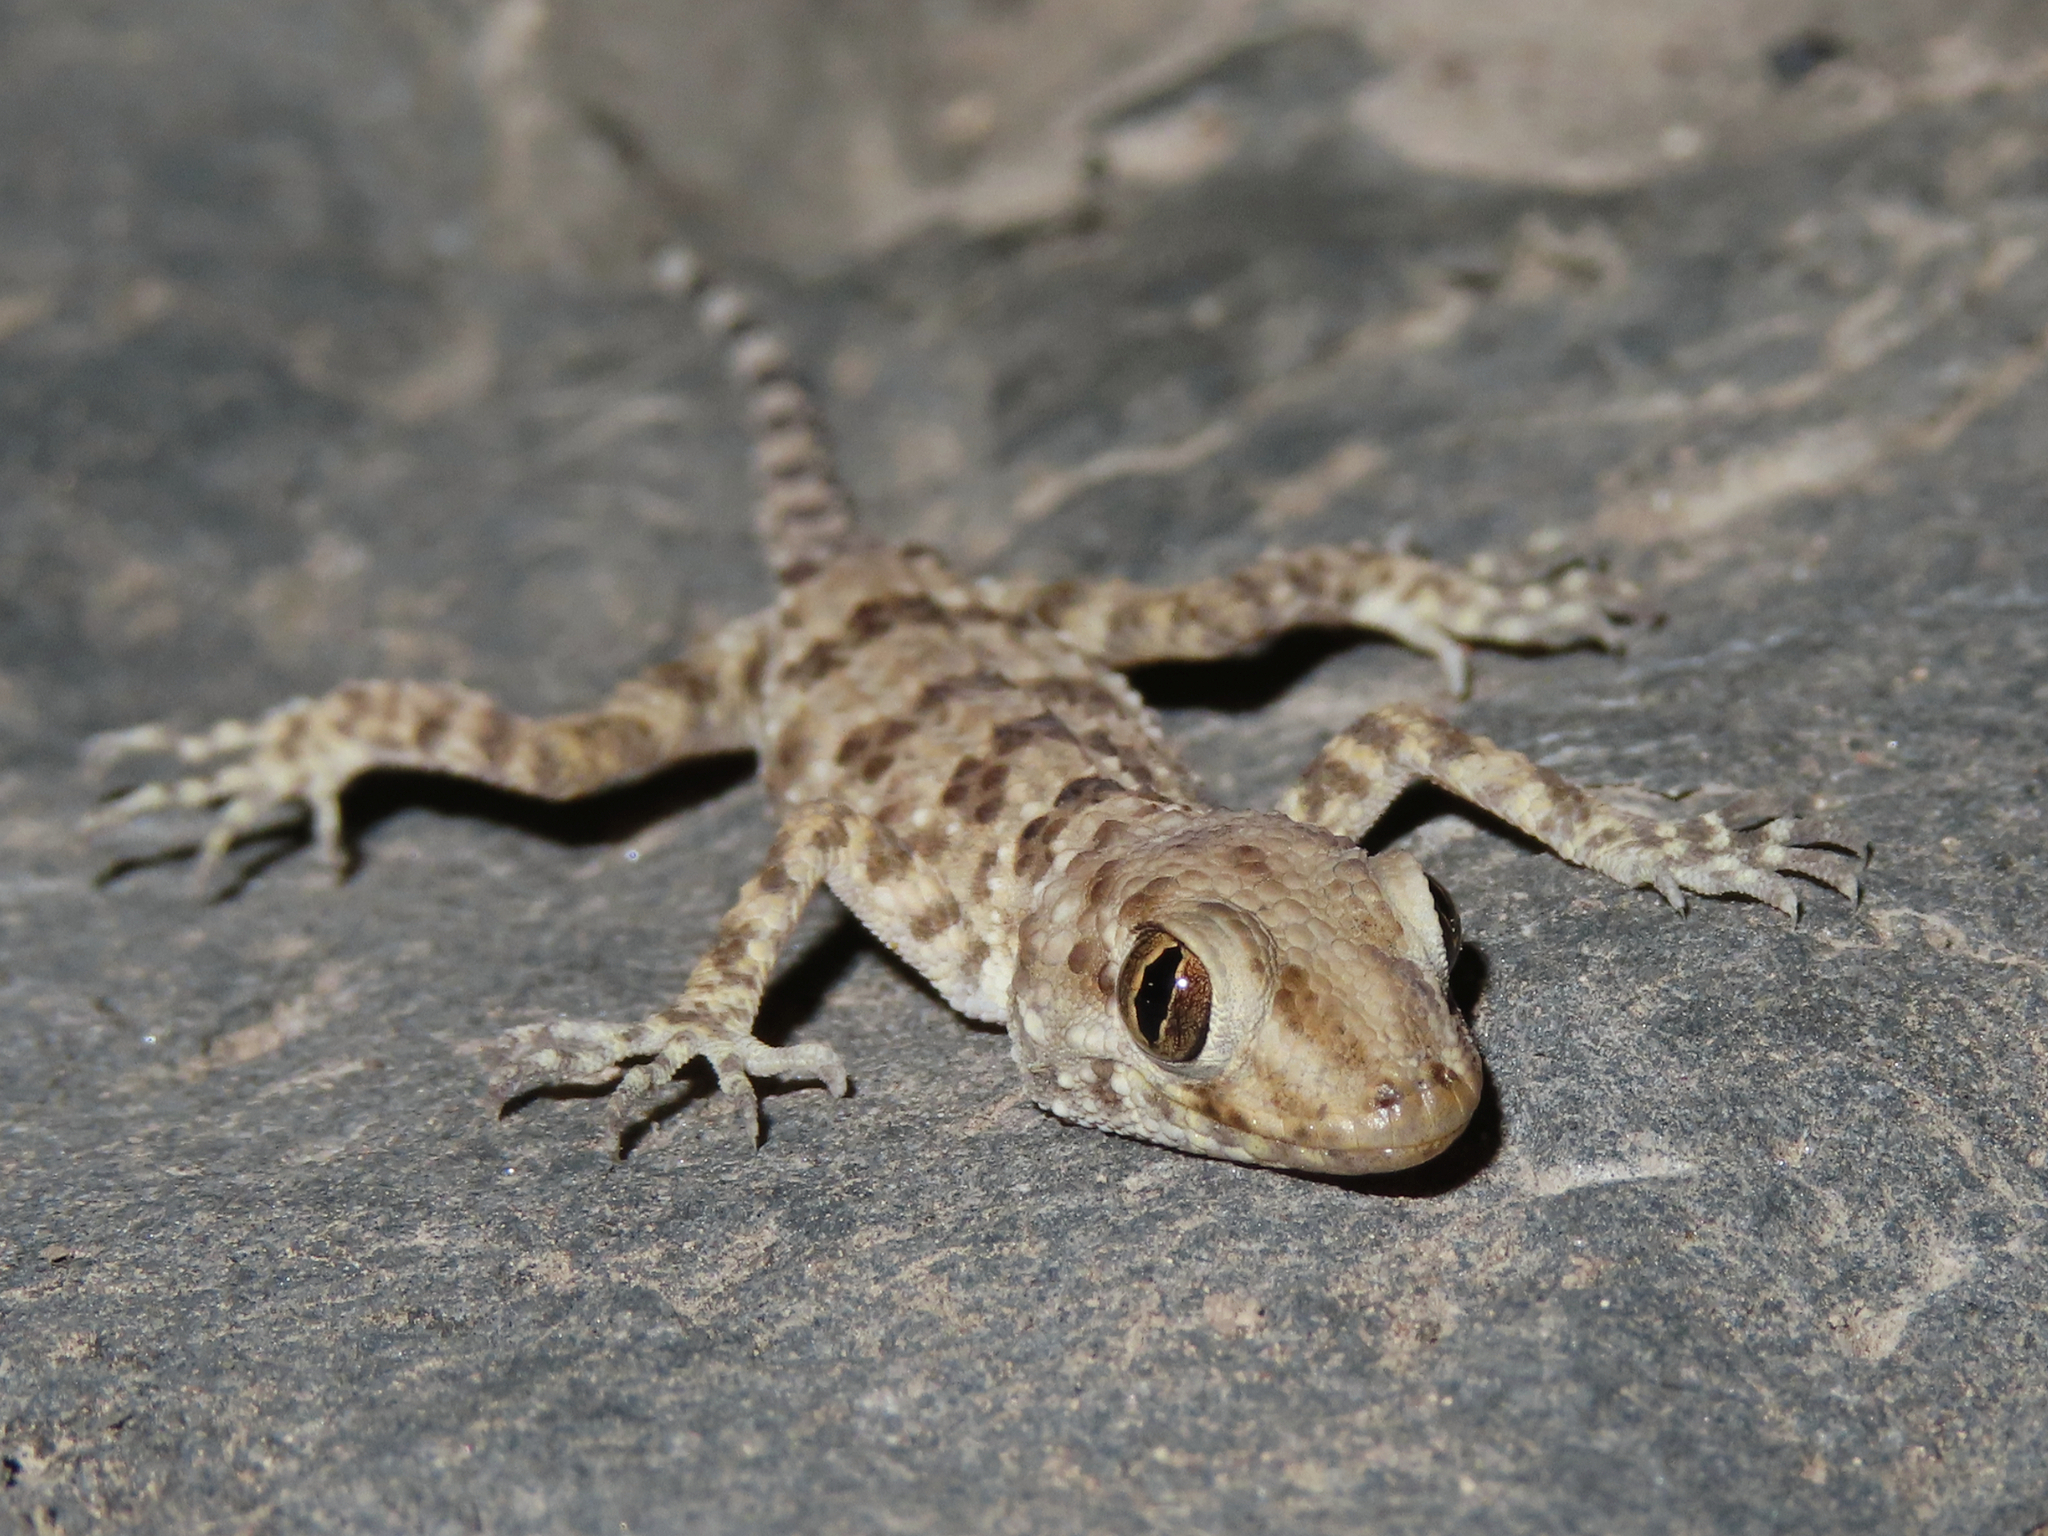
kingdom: Animalia
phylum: Chordata
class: Squamata
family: Gekkonidae
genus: Tenuidactylus
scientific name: Tenuidactylus caspius
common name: Caspian bent-toed gecko
